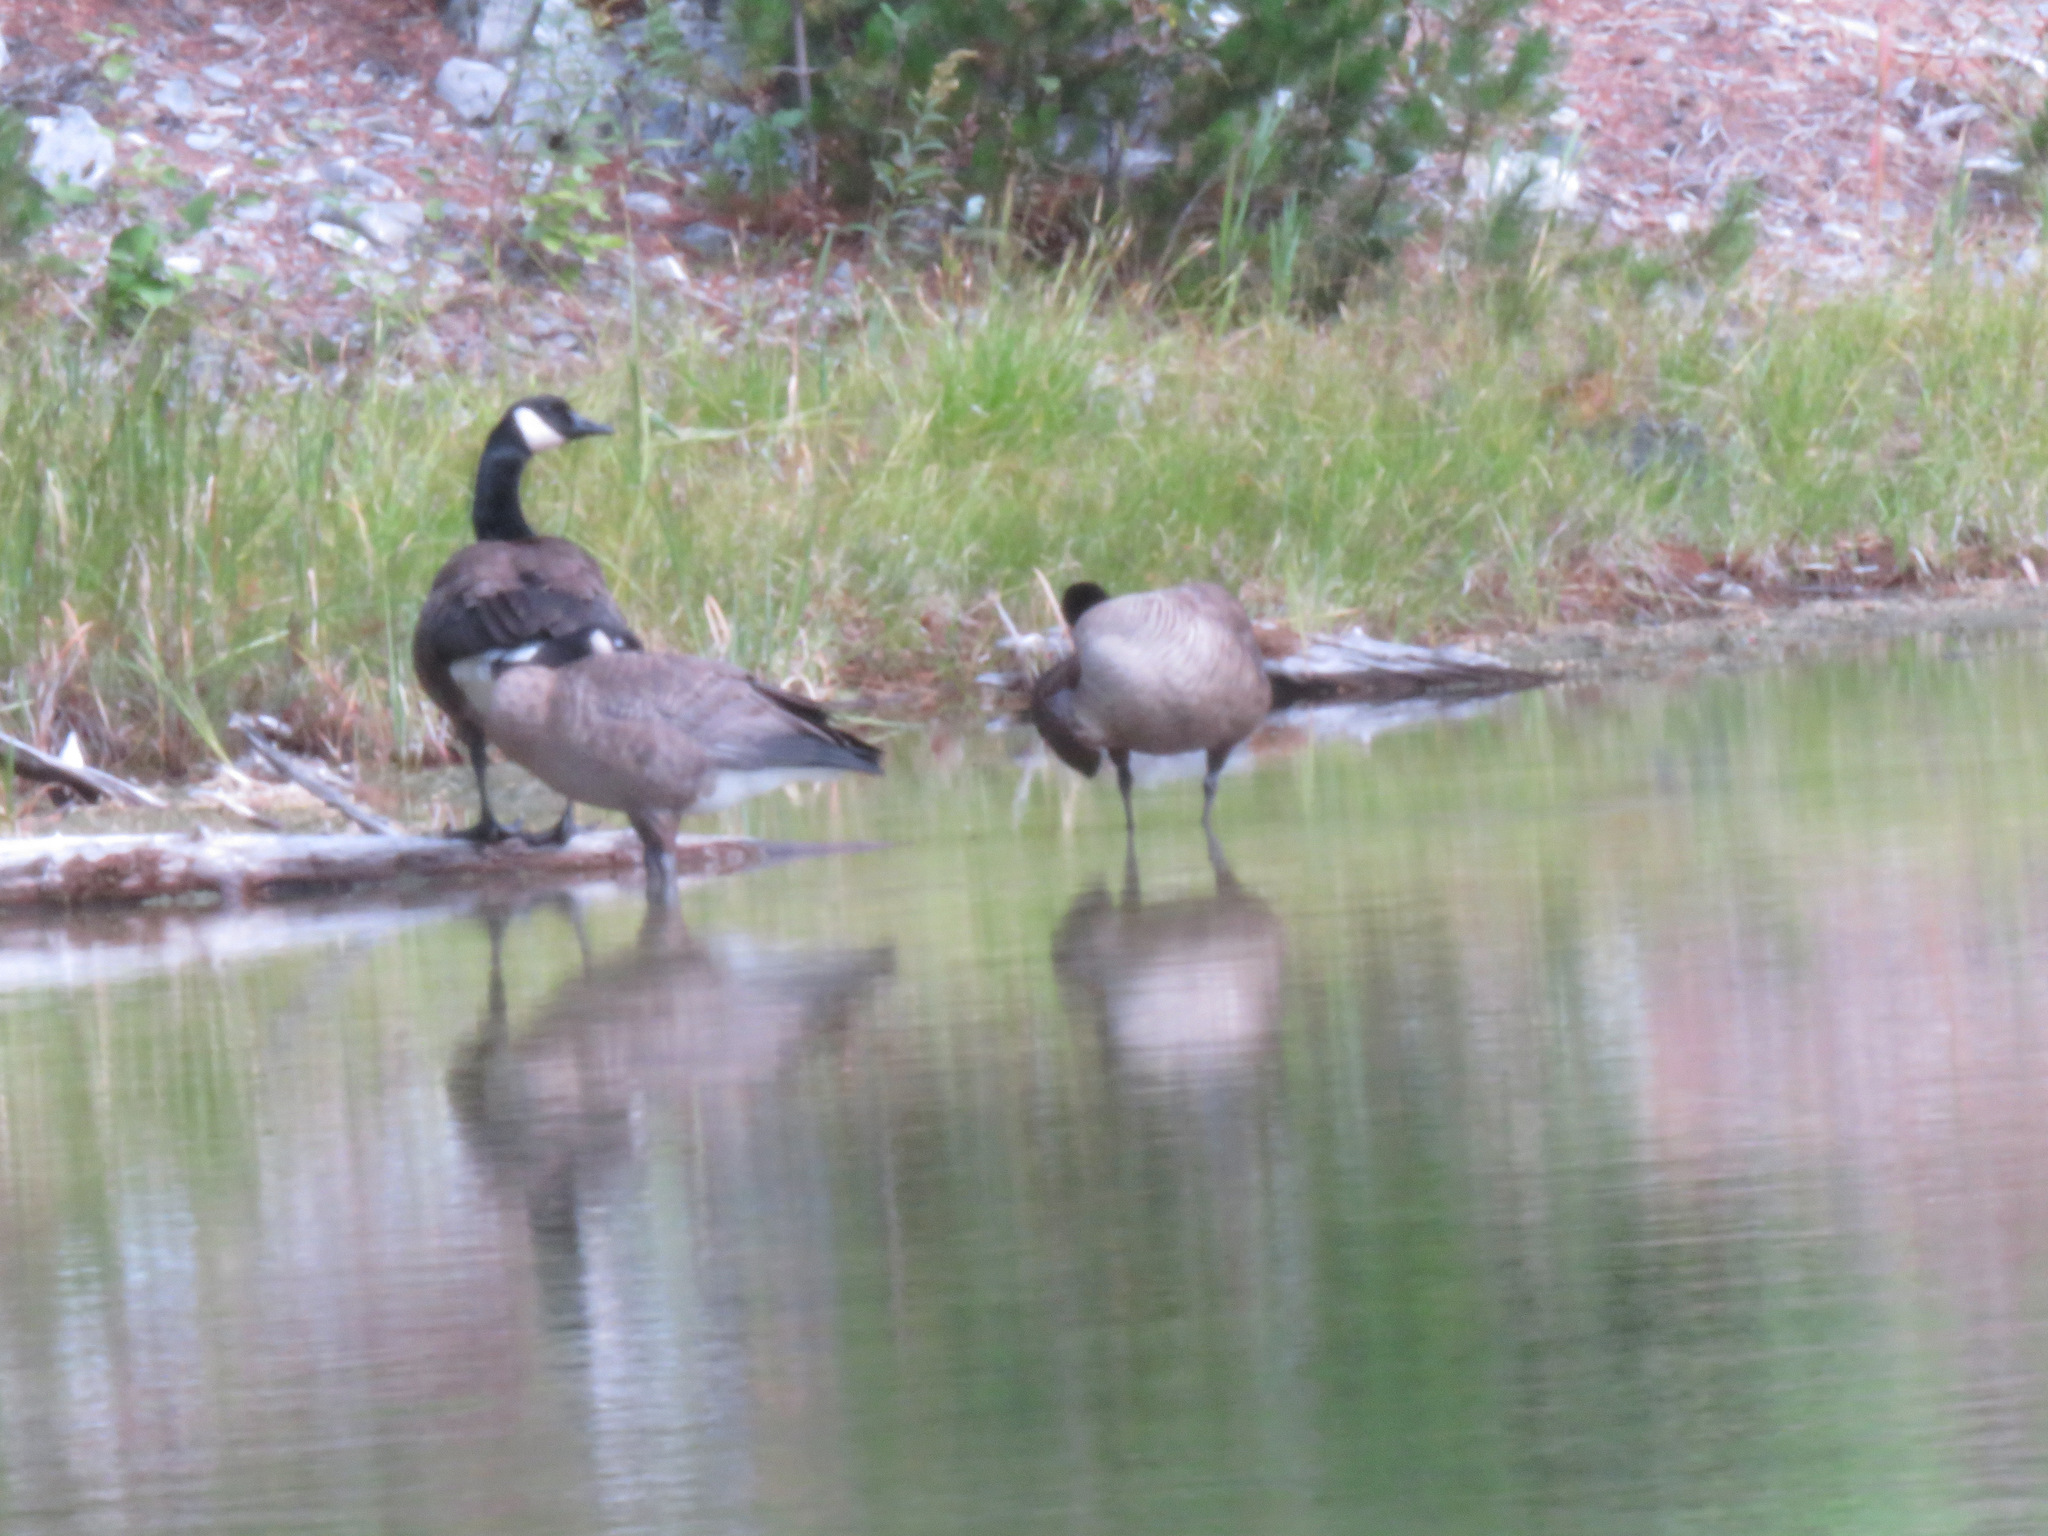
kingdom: Animalia
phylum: Chordata
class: Aves
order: Anseriformes
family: Anatidae
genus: Branta
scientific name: Branta canadensis
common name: Canada goose
